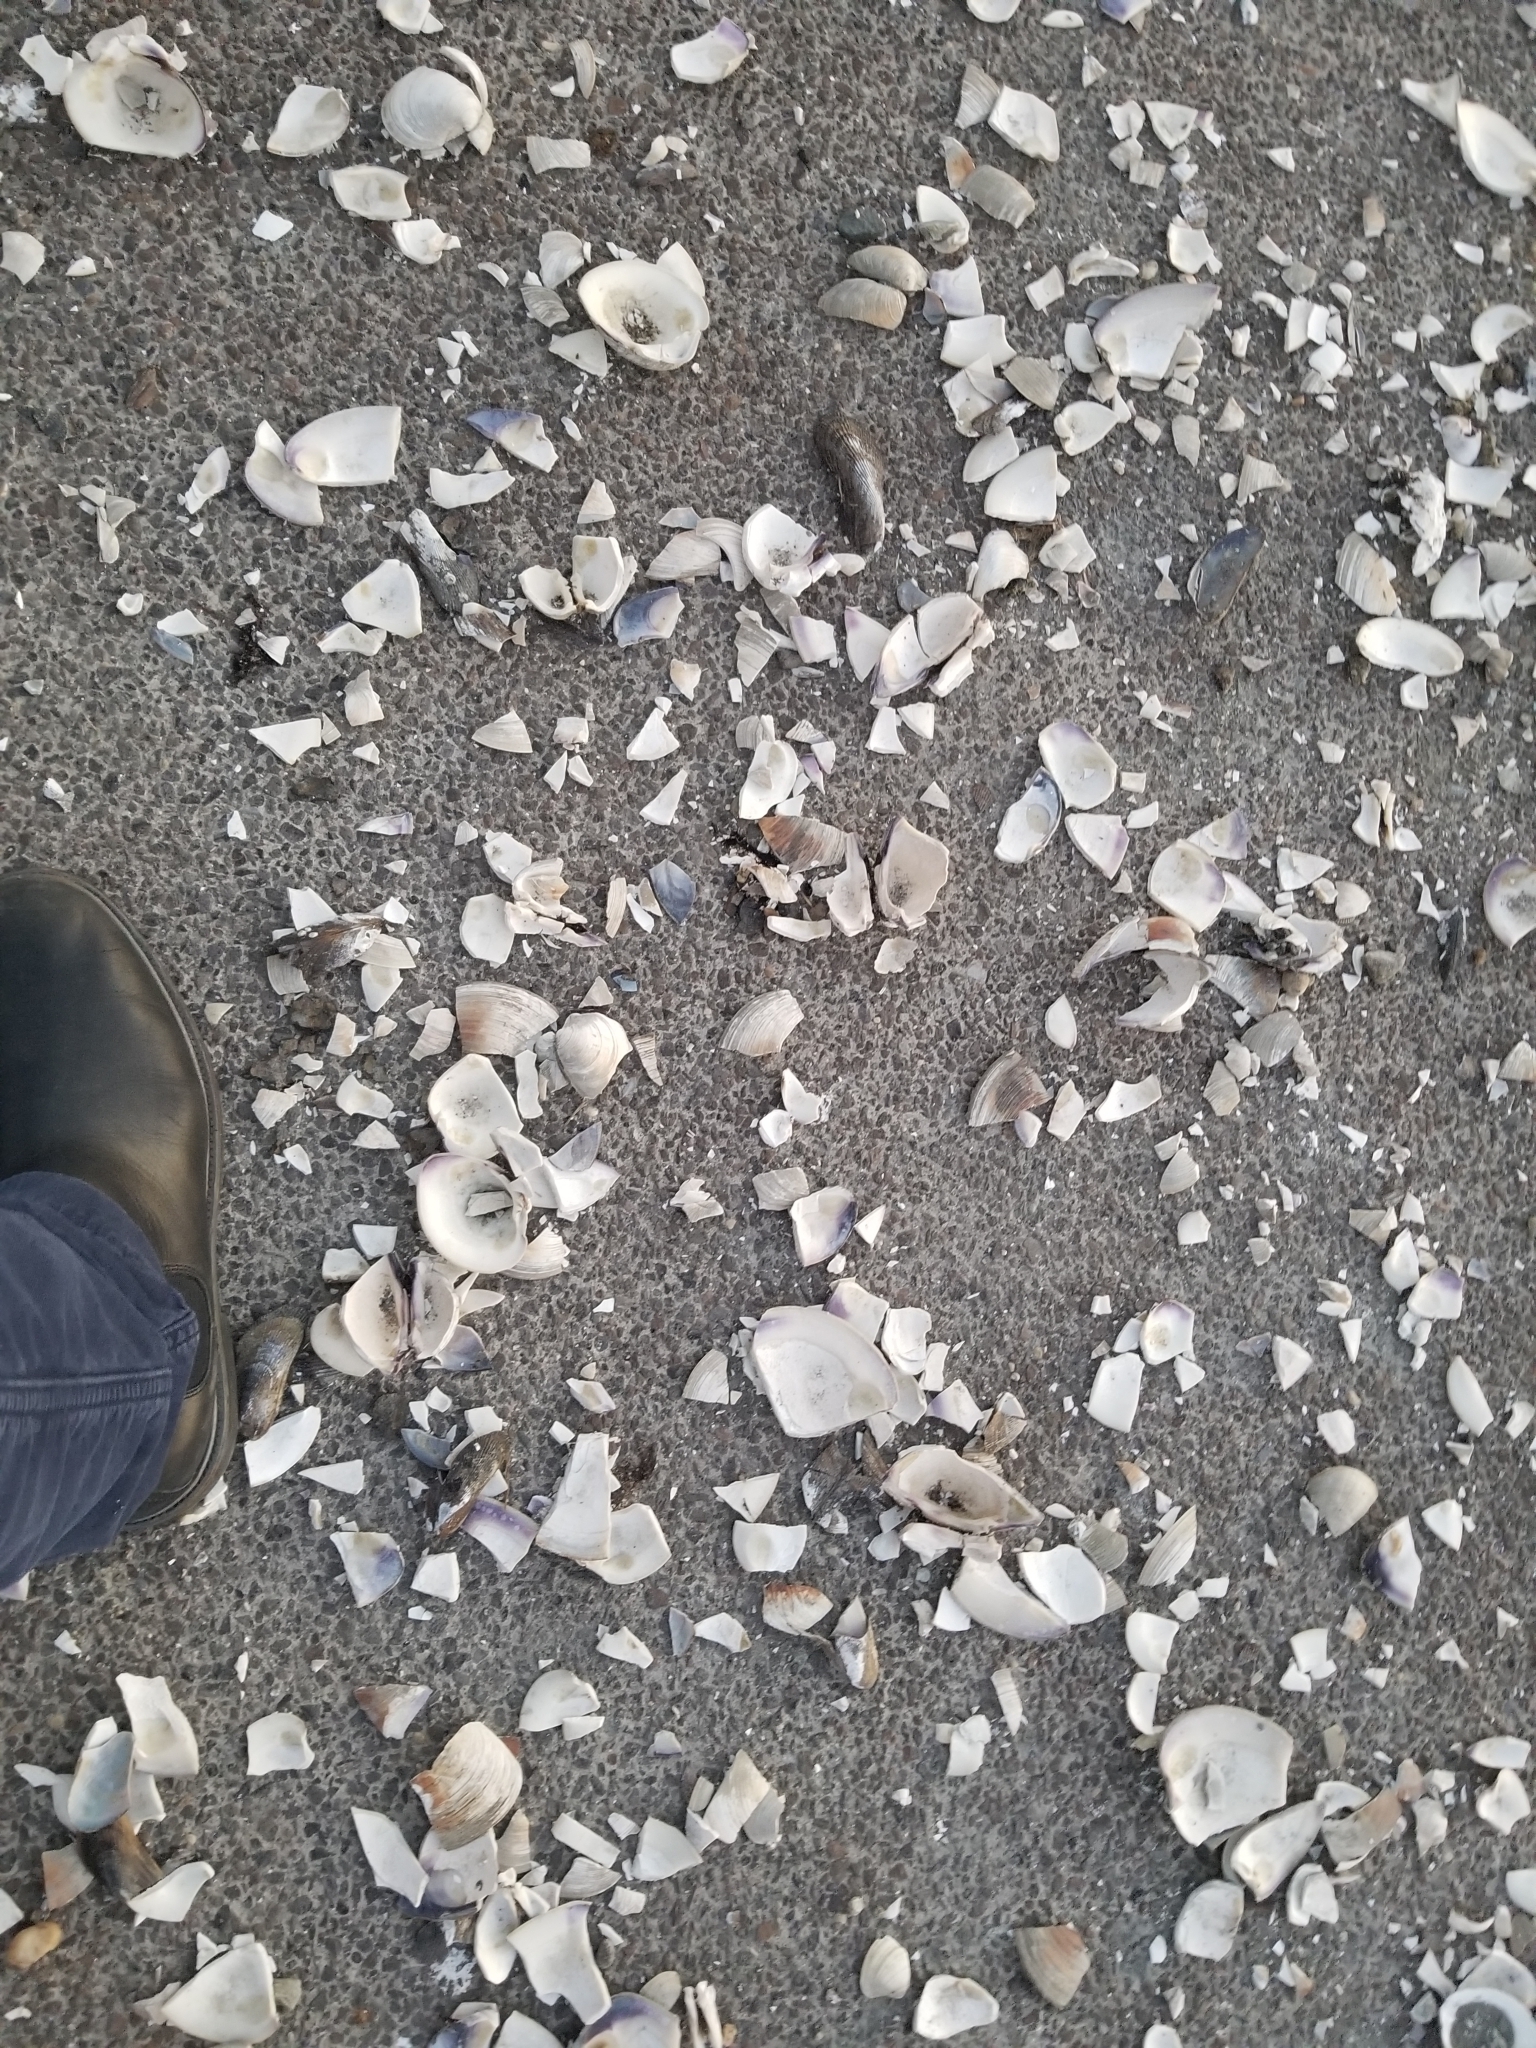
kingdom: Animalia
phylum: Mollusca
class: Bivalvia
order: Venerida
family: Veneridae
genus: Mercenaria
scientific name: Mercenaria mercenaria
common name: American hard-shelled clam
